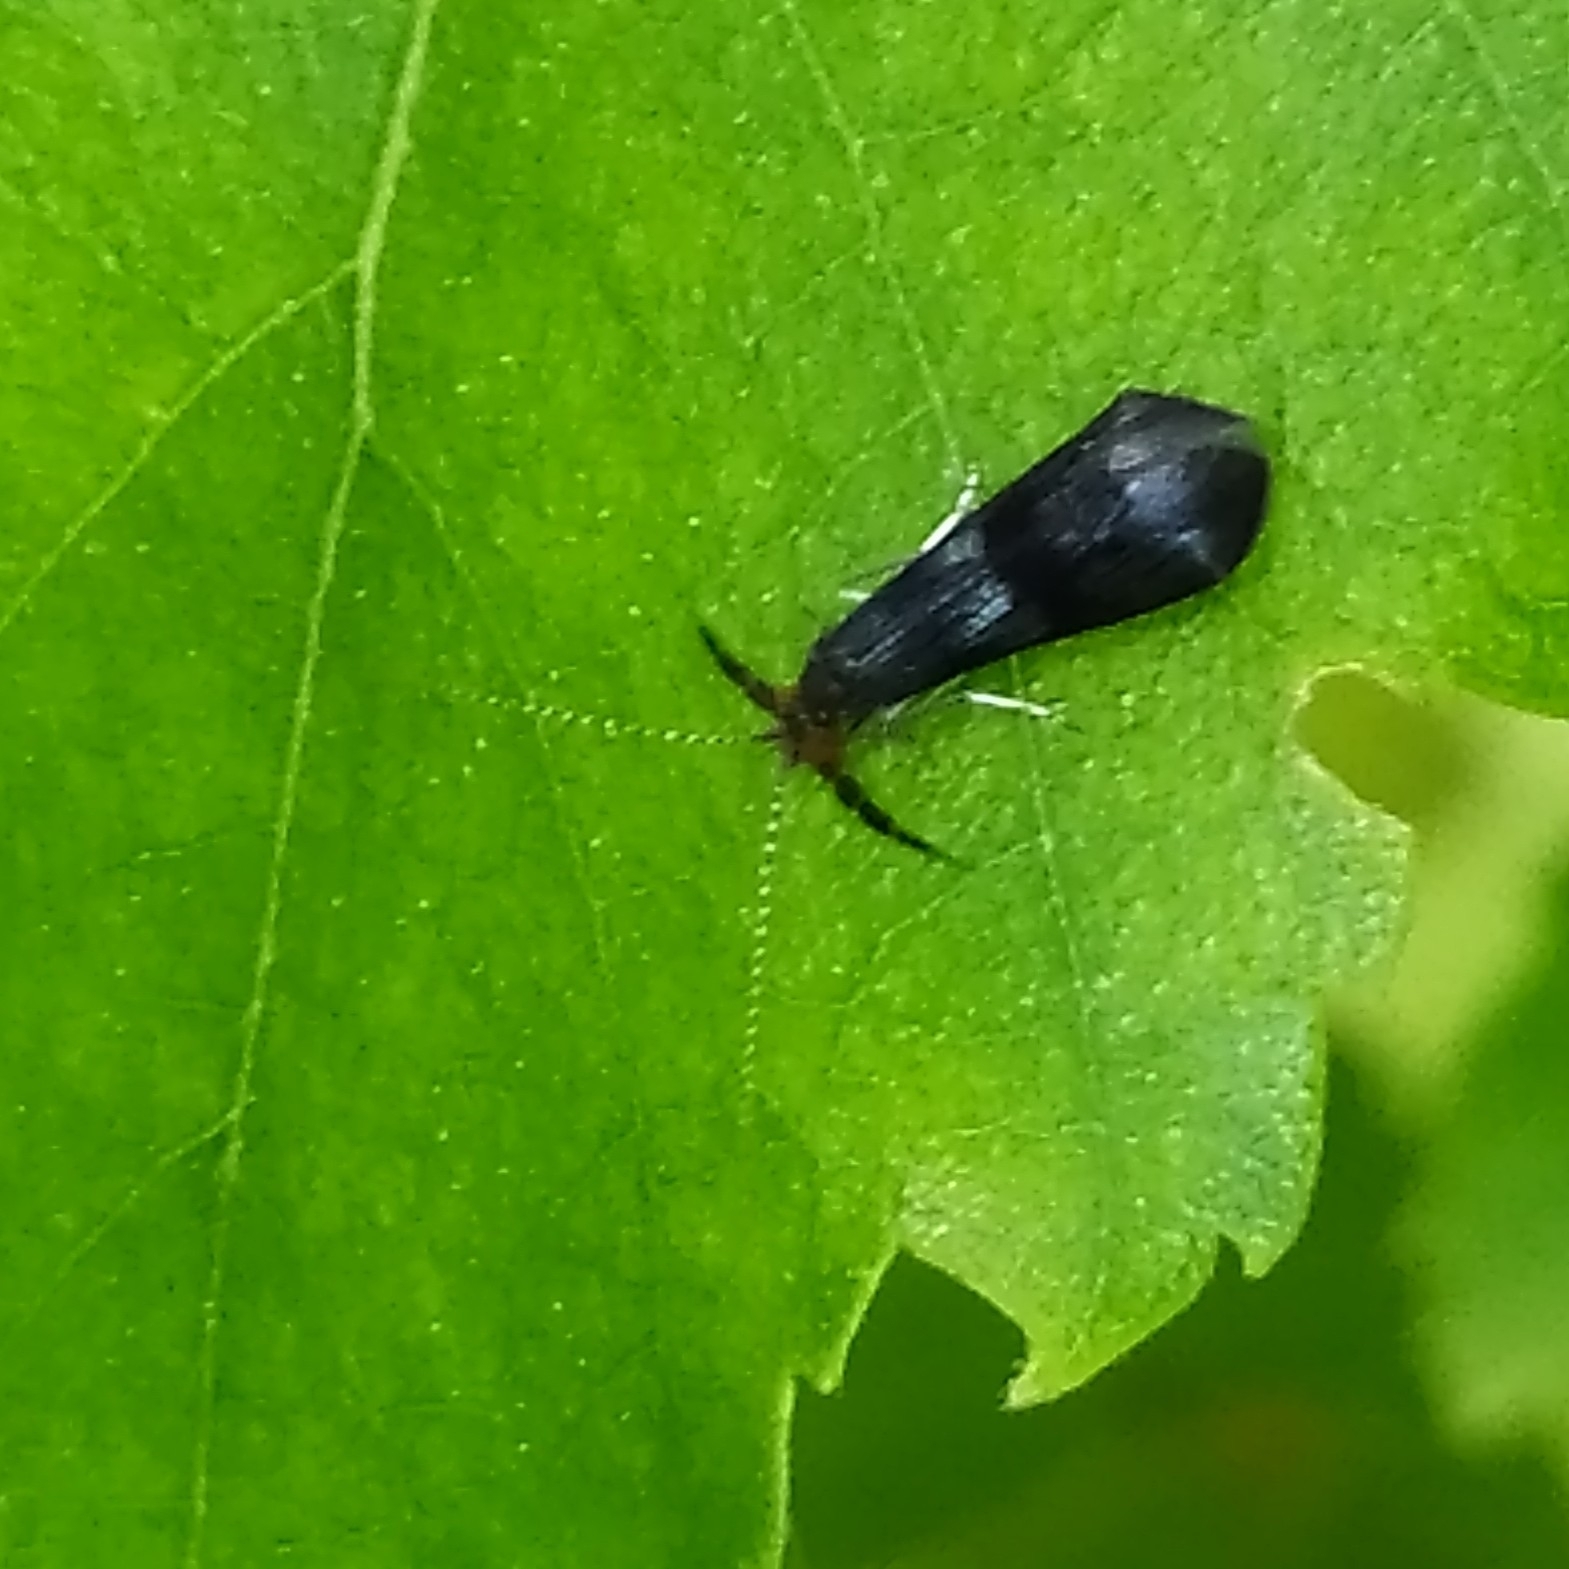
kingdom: Animalia
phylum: Arthropoda
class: Insecta
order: Trichoptera
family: Leptoceridae
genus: Mystacides
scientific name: Mystacides azureus
